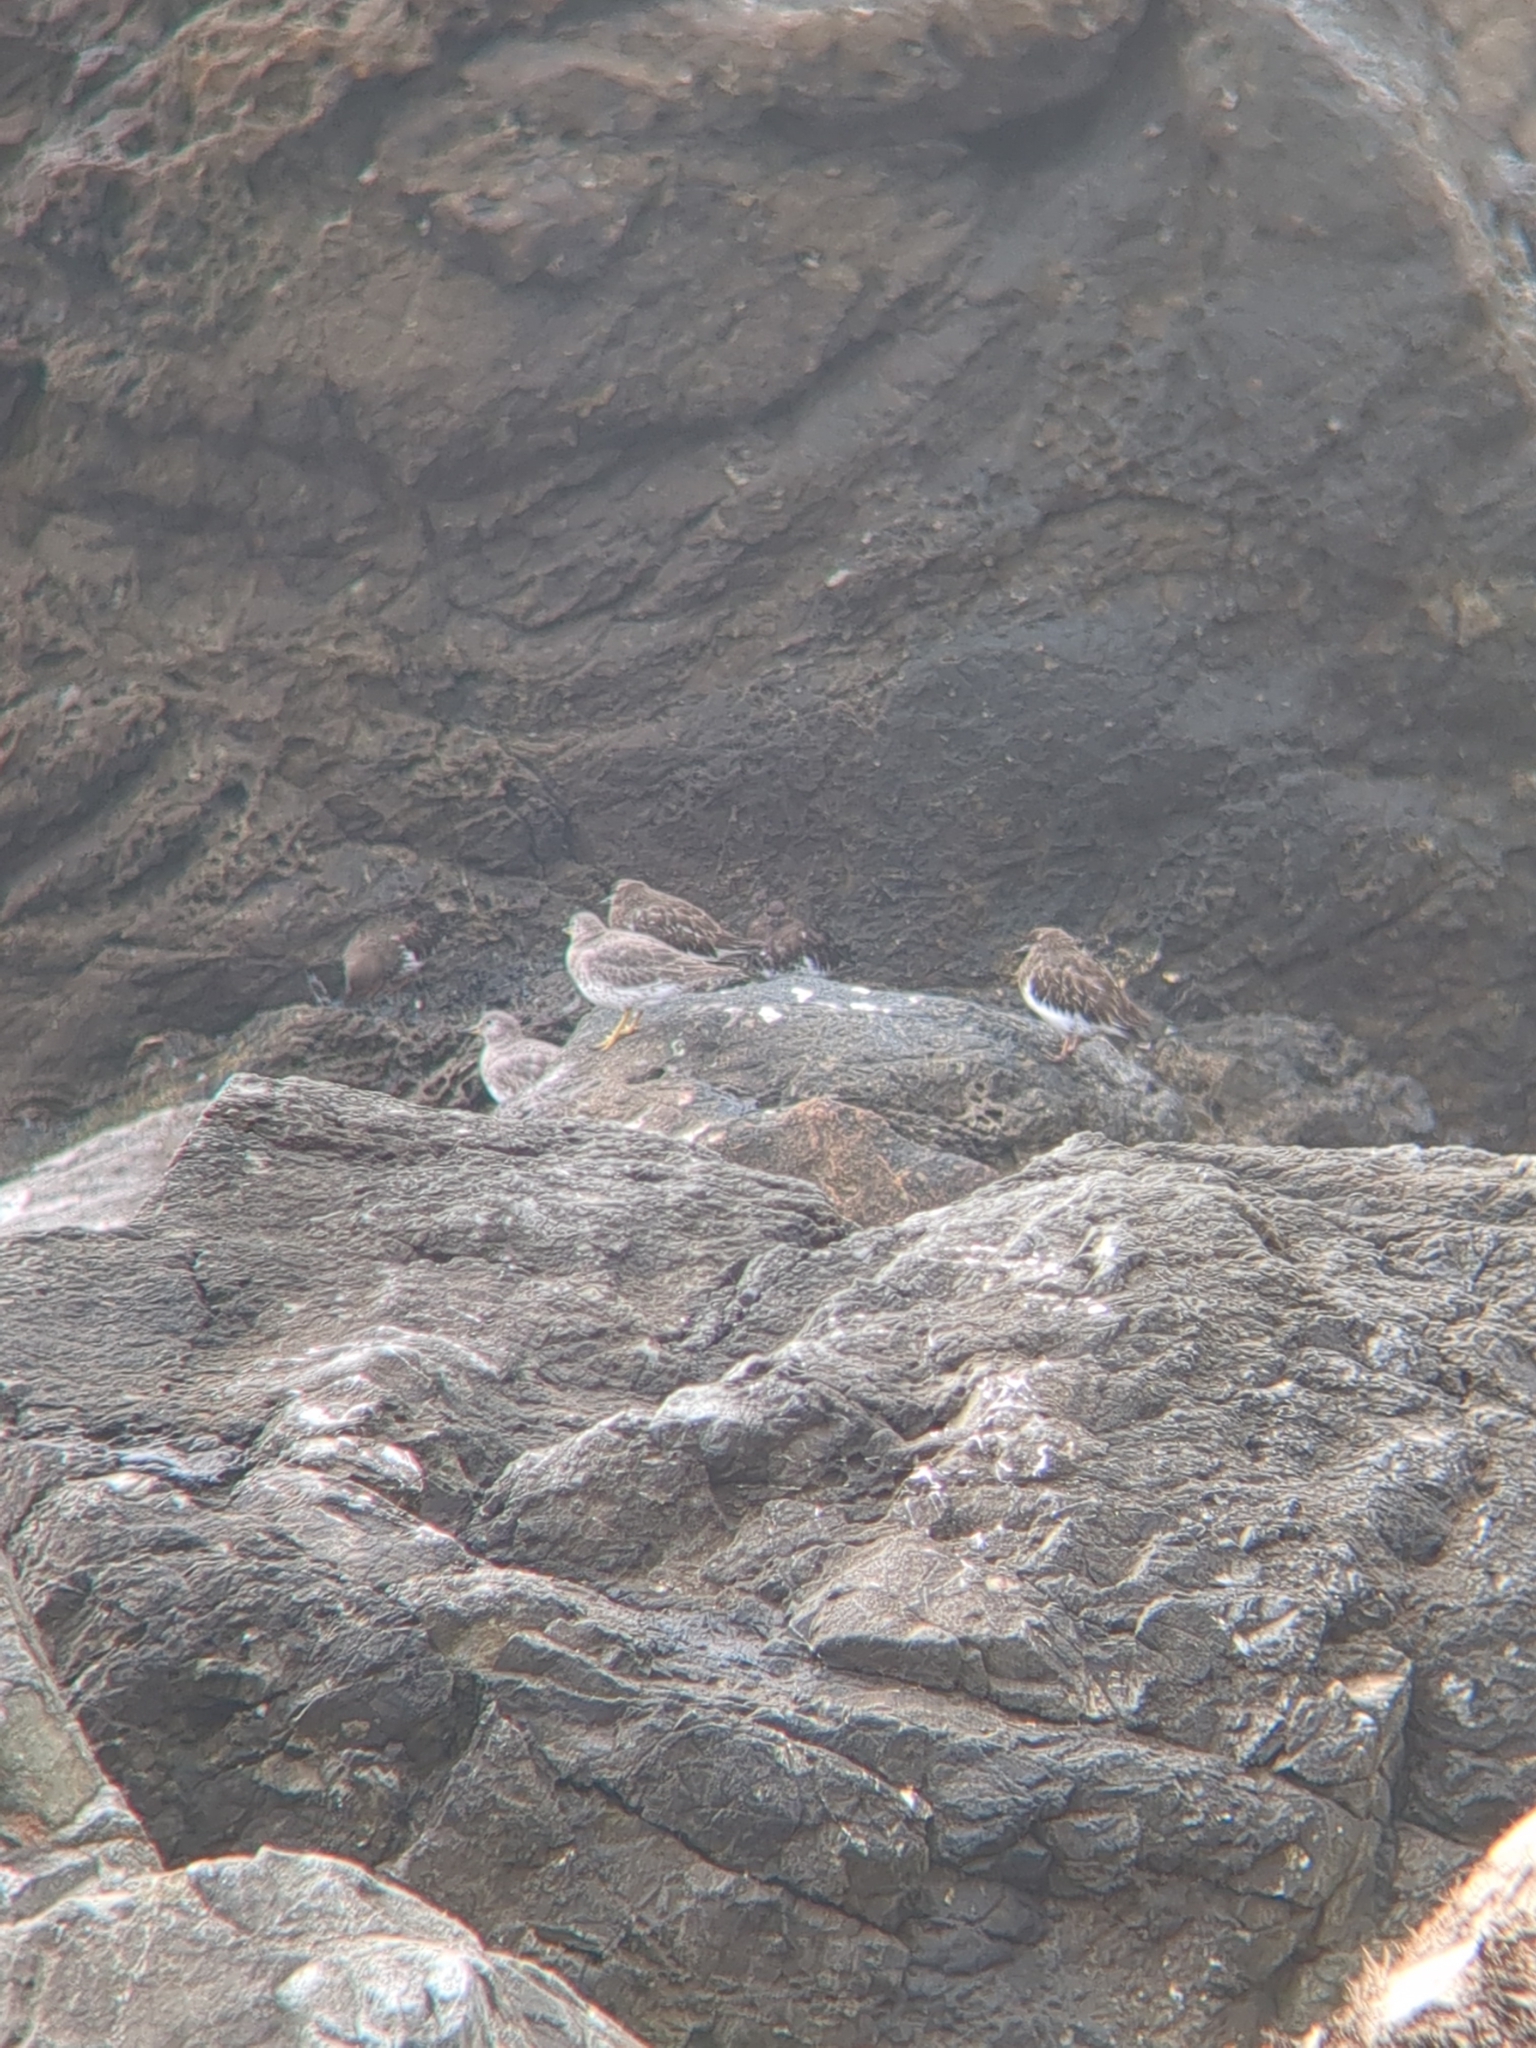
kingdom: Animalia
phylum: Chordata
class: Aves
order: Charadriiformes
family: Scolopacidae
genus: Calidris
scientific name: Calidris virgata
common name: Surfbird
